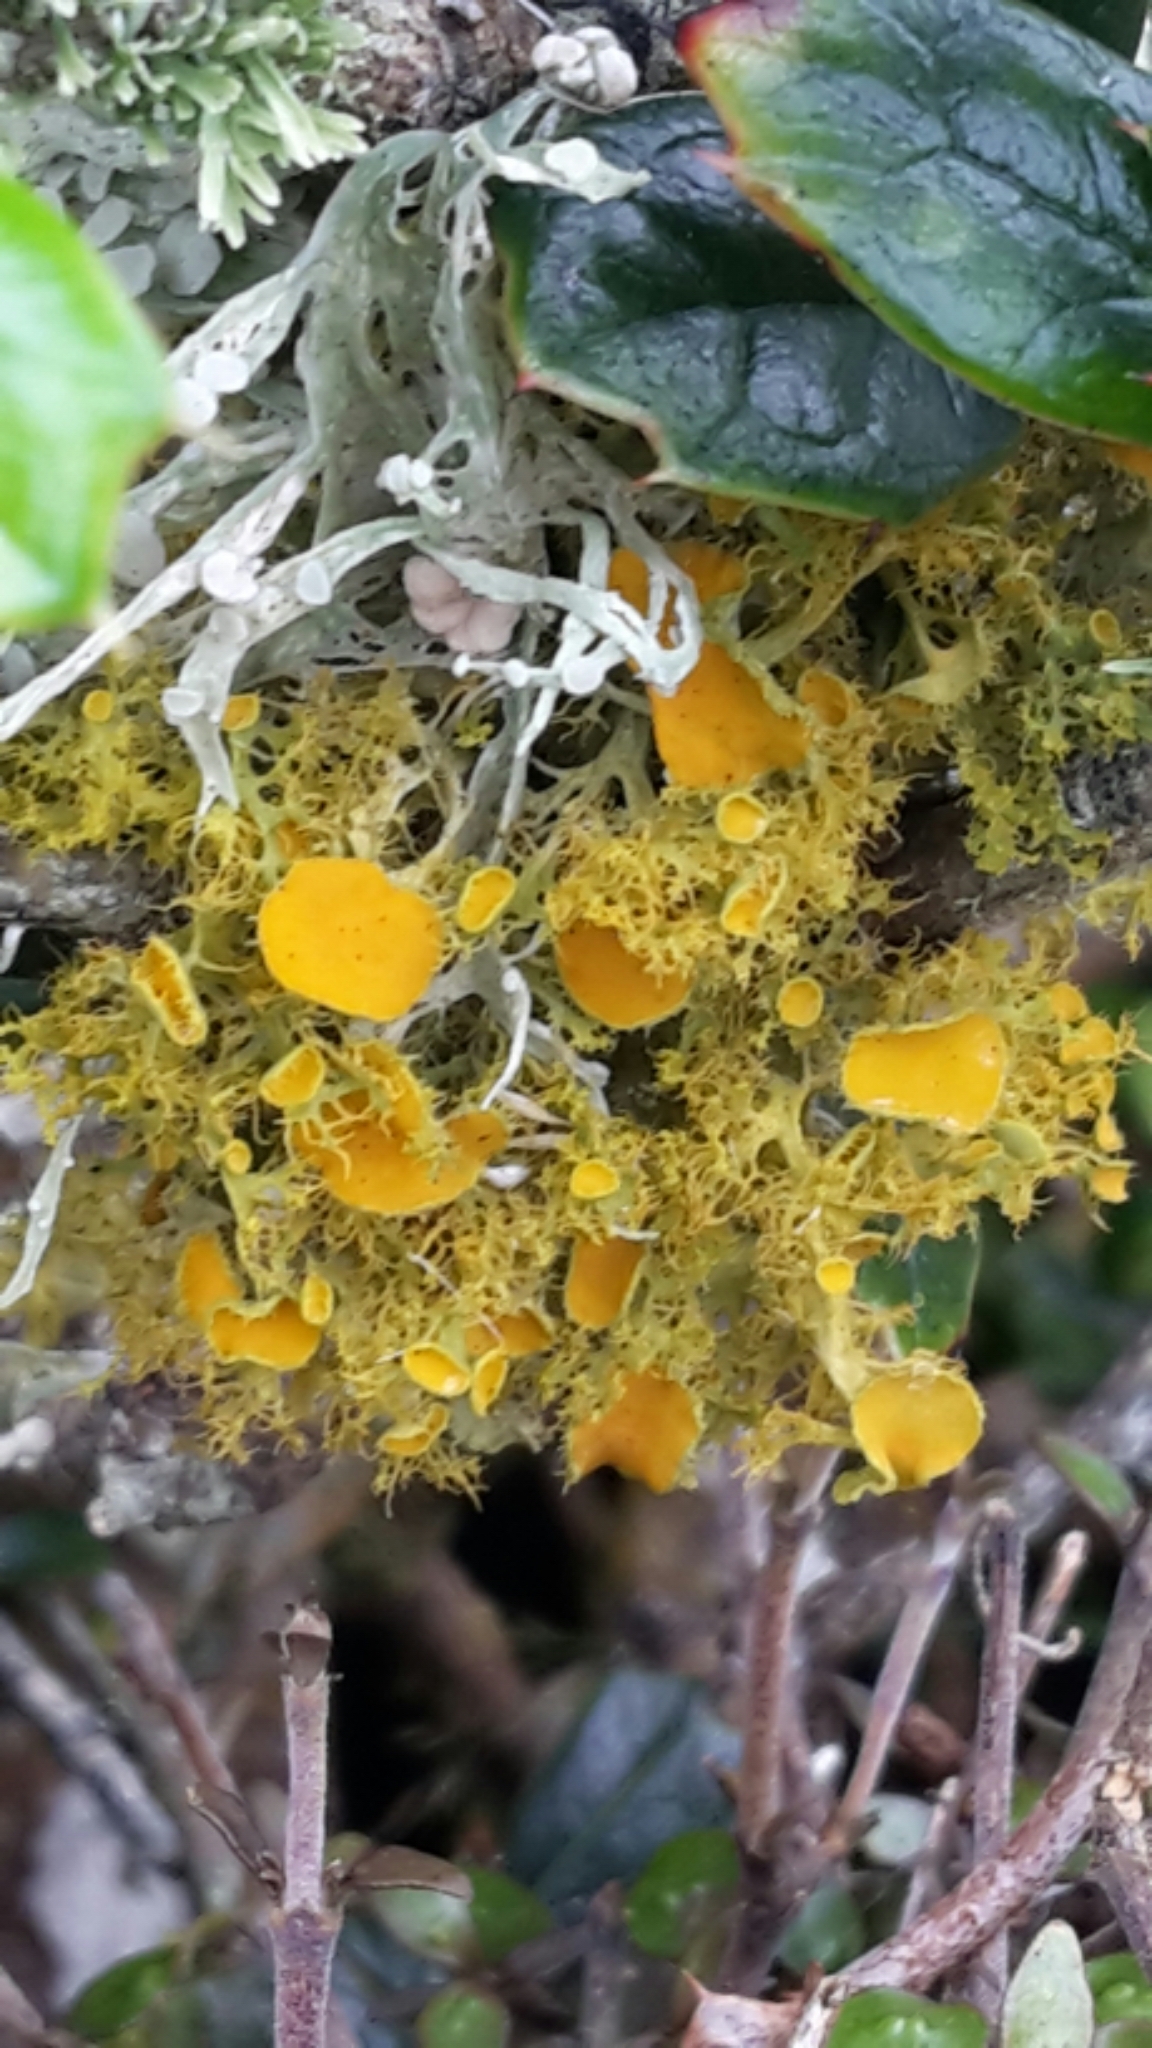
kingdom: Fungi
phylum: Ascomycota
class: Lecanoromycetes
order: Teloschistales
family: Teloschistaceae
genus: Niorma
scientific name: Niorma chrysophthalma
